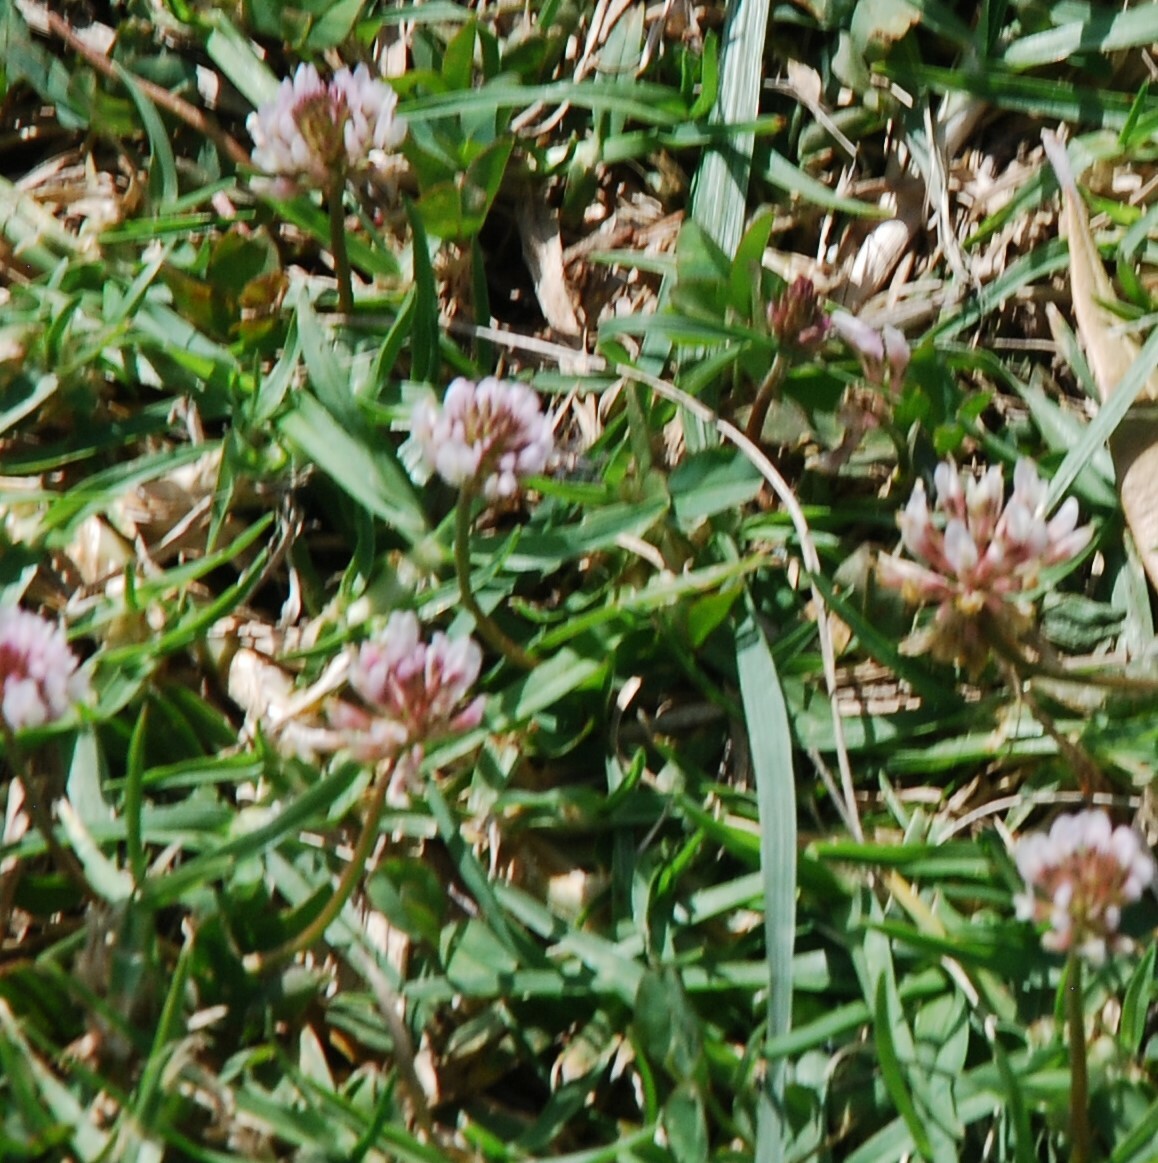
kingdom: Plantae
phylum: Tracheophyta
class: Magnoliopsida
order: Fabales
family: Fabaceae
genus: Trifolium
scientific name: Trifolium repens
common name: White clover
